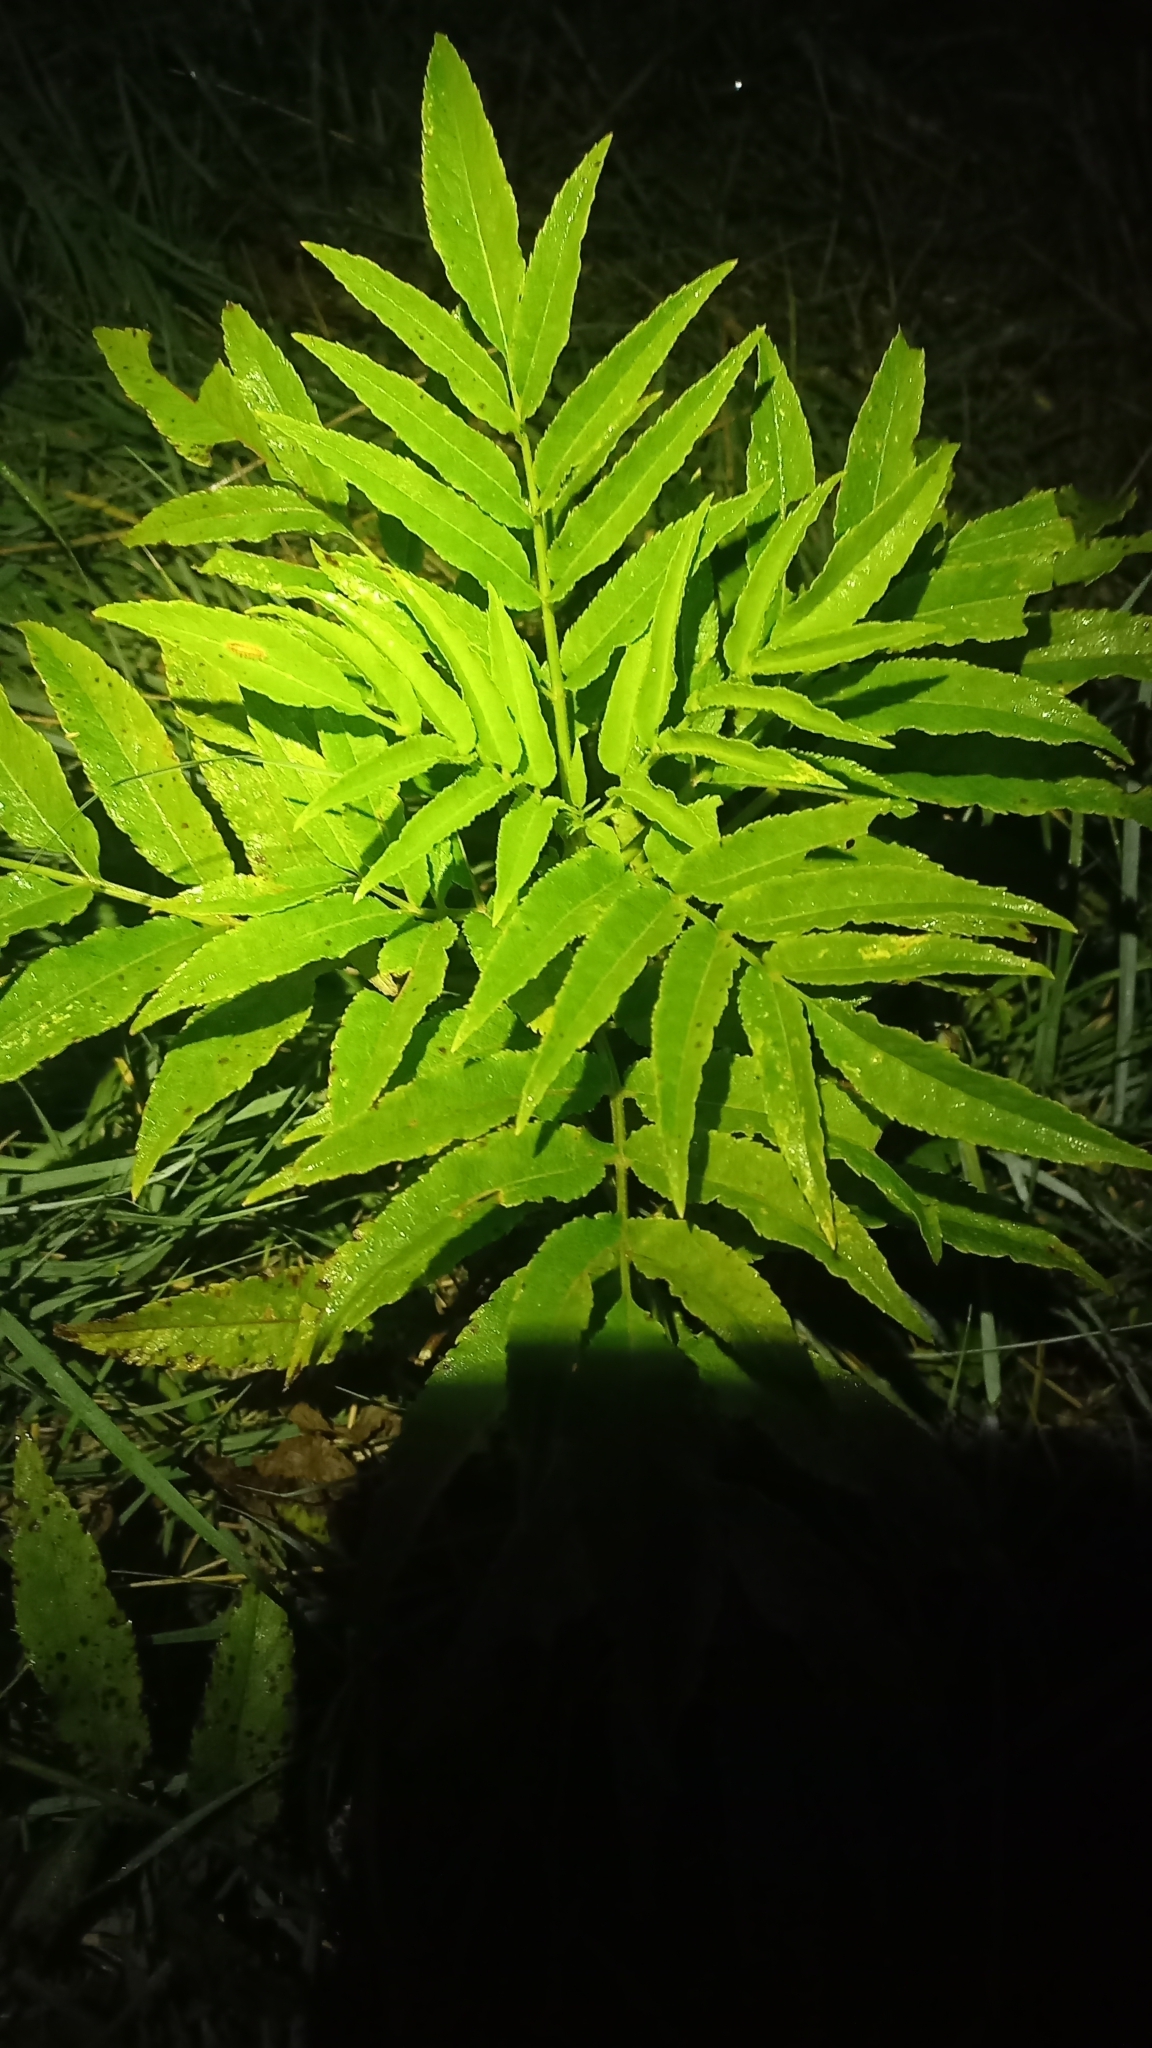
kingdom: Plantae
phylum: Tracheophyta
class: Magnoliopsida
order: Dipsacales
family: Viburnaceae
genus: Sambucus
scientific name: Sambucus ebulus
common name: Dwarf elder
